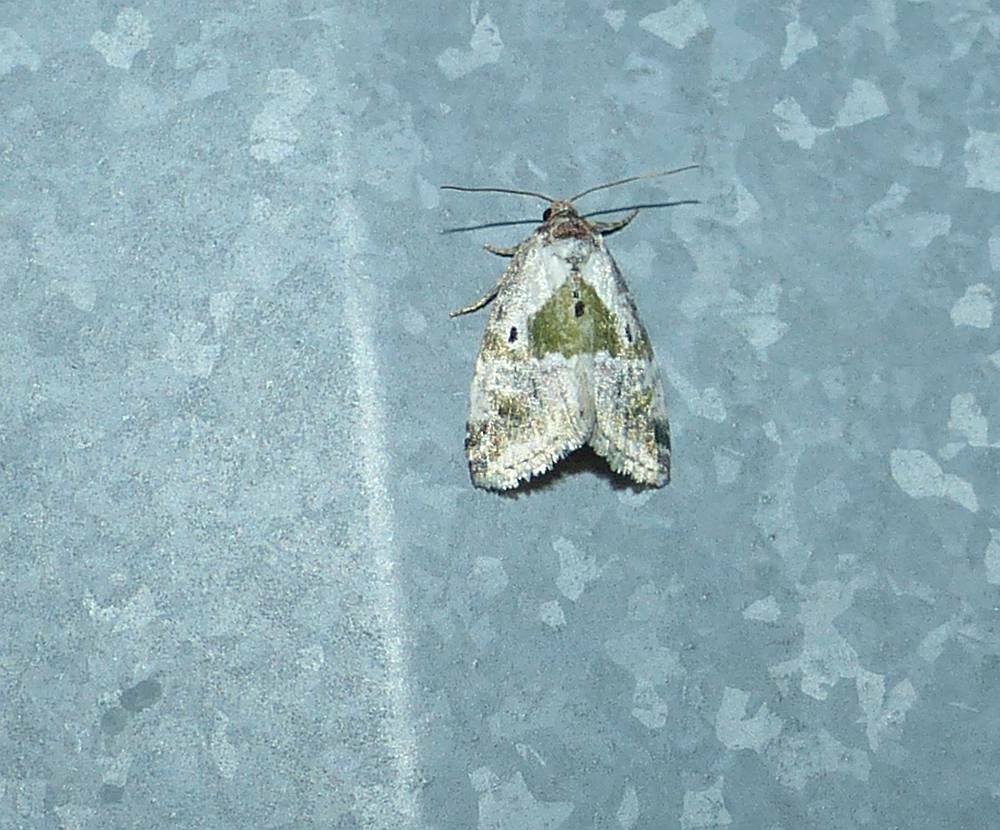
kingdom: Animalia
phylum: Arthropoda
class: Insecta
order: Lepidoptera
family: Noctuidae
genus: Maliattha
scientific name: Maliattha synochitis
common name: Black-dotted glyph
